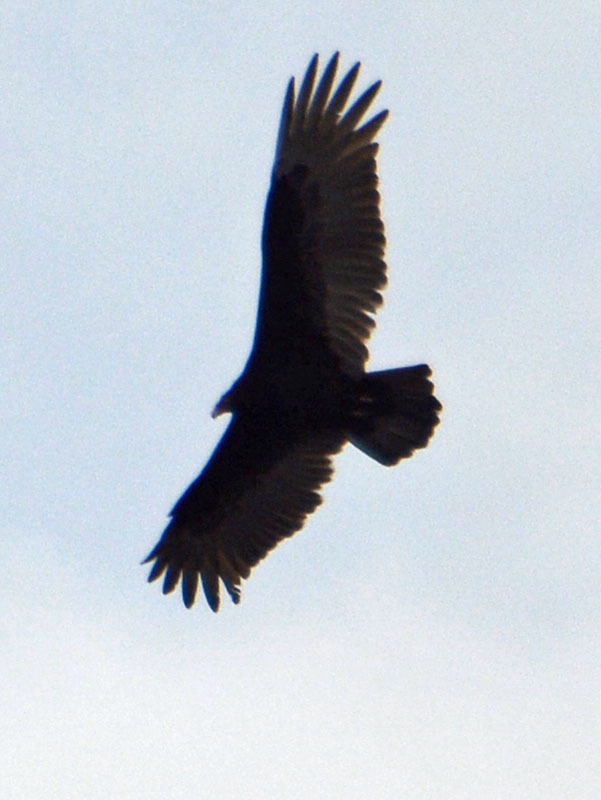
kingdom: Animalia
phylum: Chordata
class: Aves
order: Accipitriformes
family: Cathartidae
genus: Cathartes
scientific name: Cathartes aura
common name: Turkey vulture
